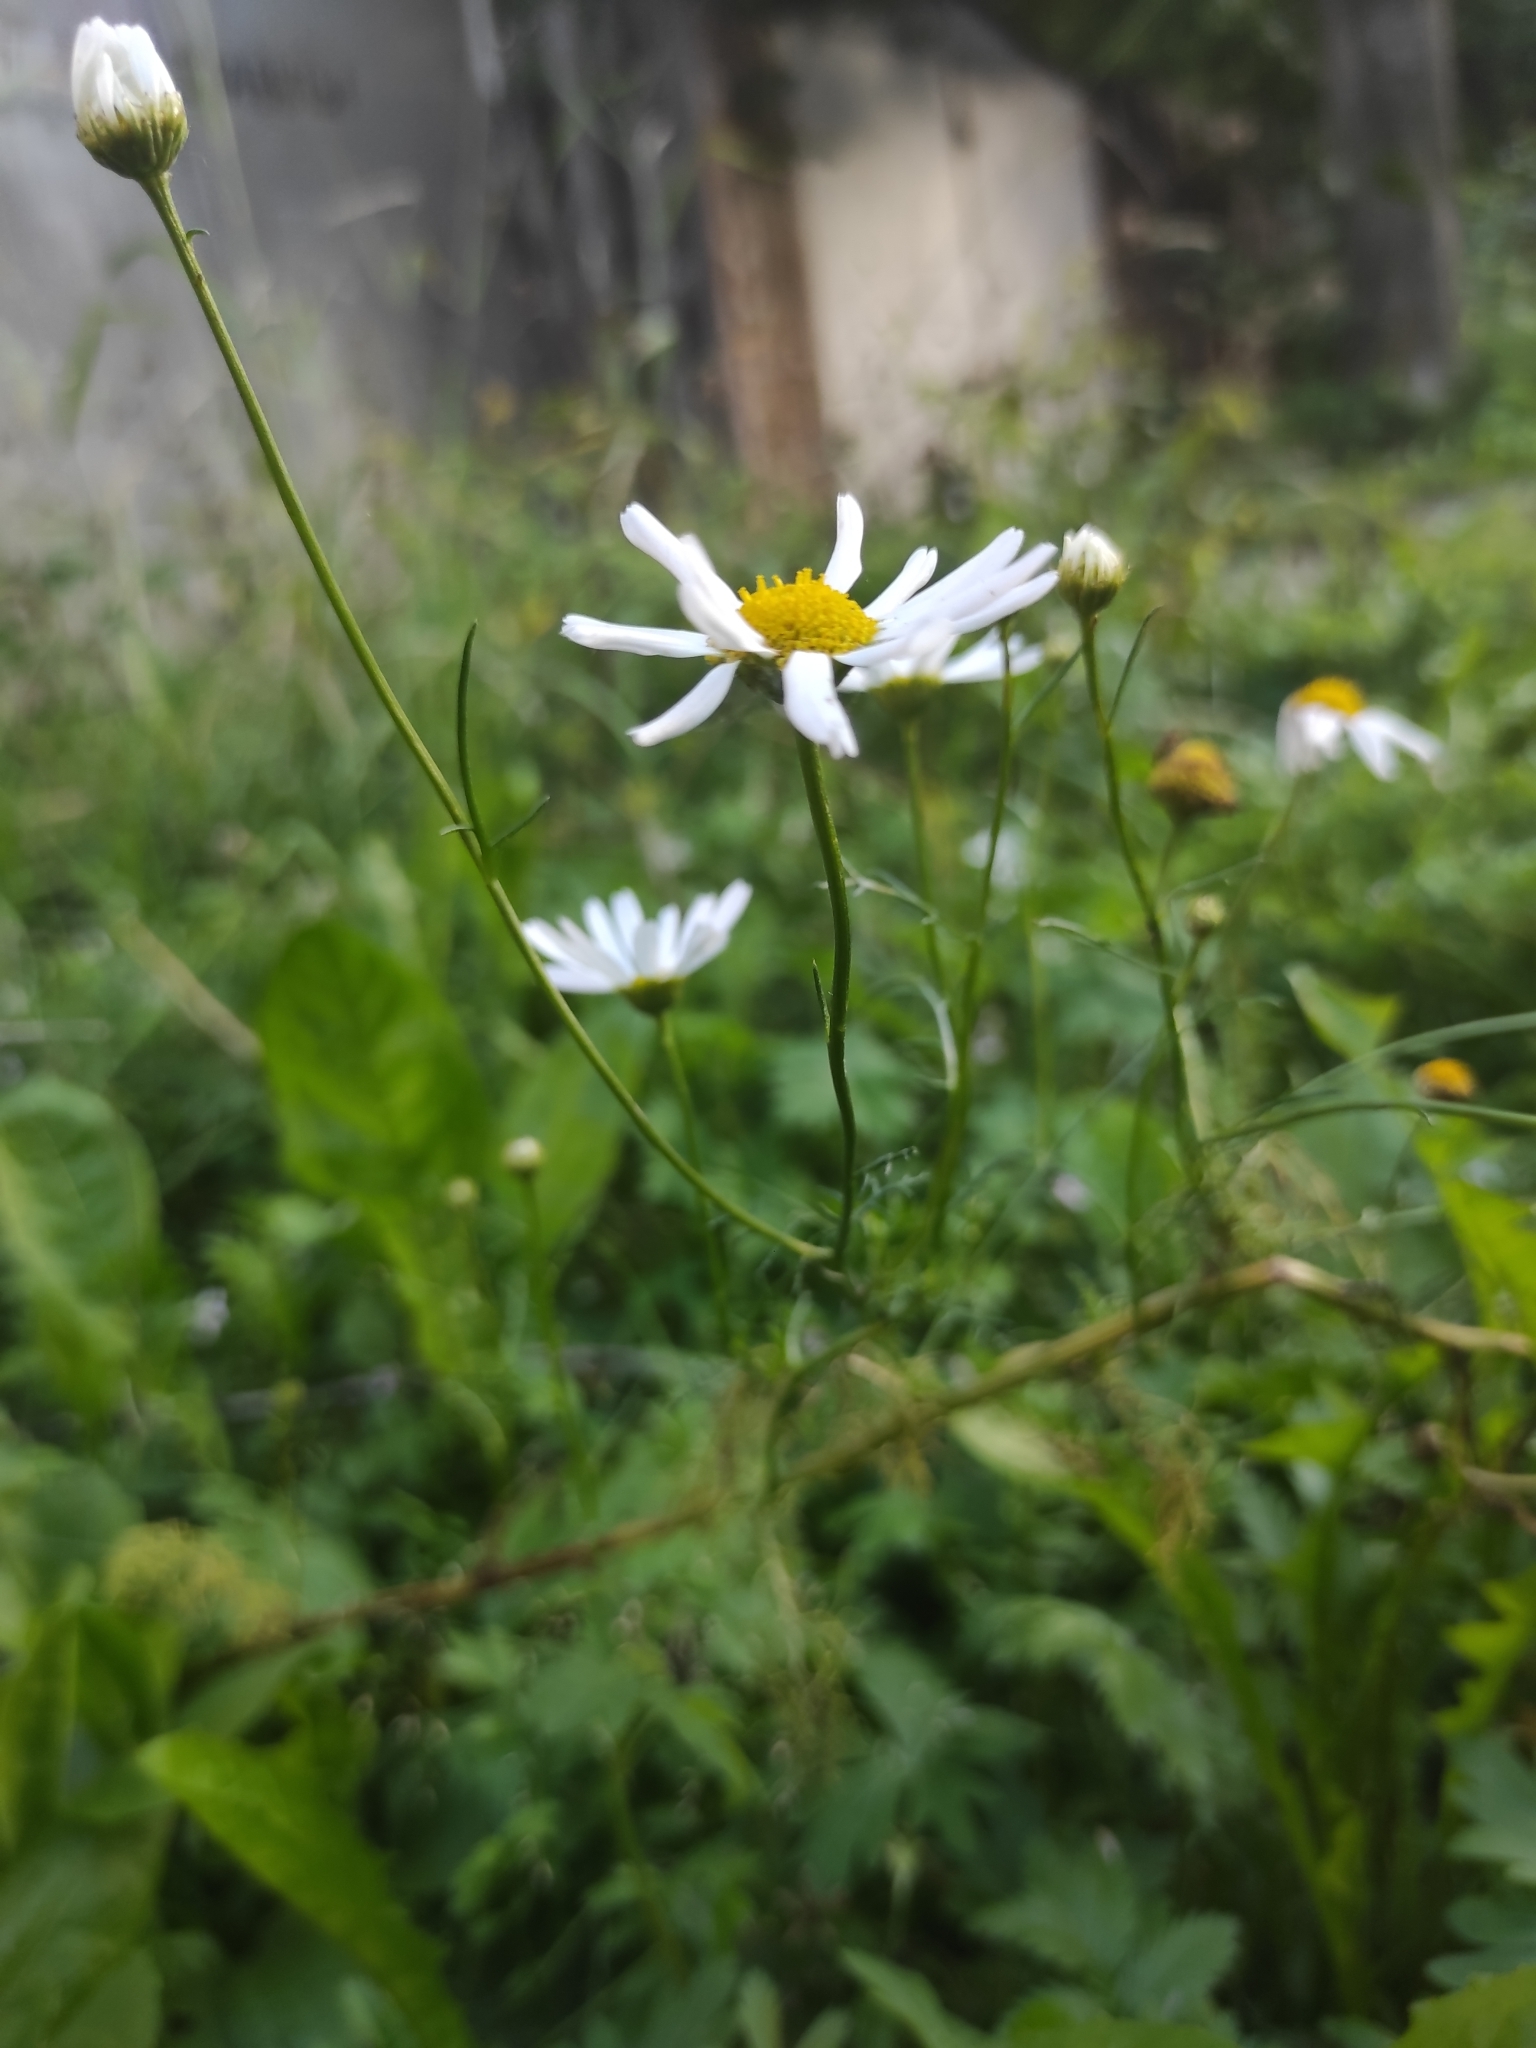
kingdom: Plantae
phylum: Tracheophyta
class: Magnoliopsida
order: Asterales
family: Asteraceae
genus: Tripleurospermum
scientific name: Tripleurospermum inodorum
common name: Scentless mayweed
